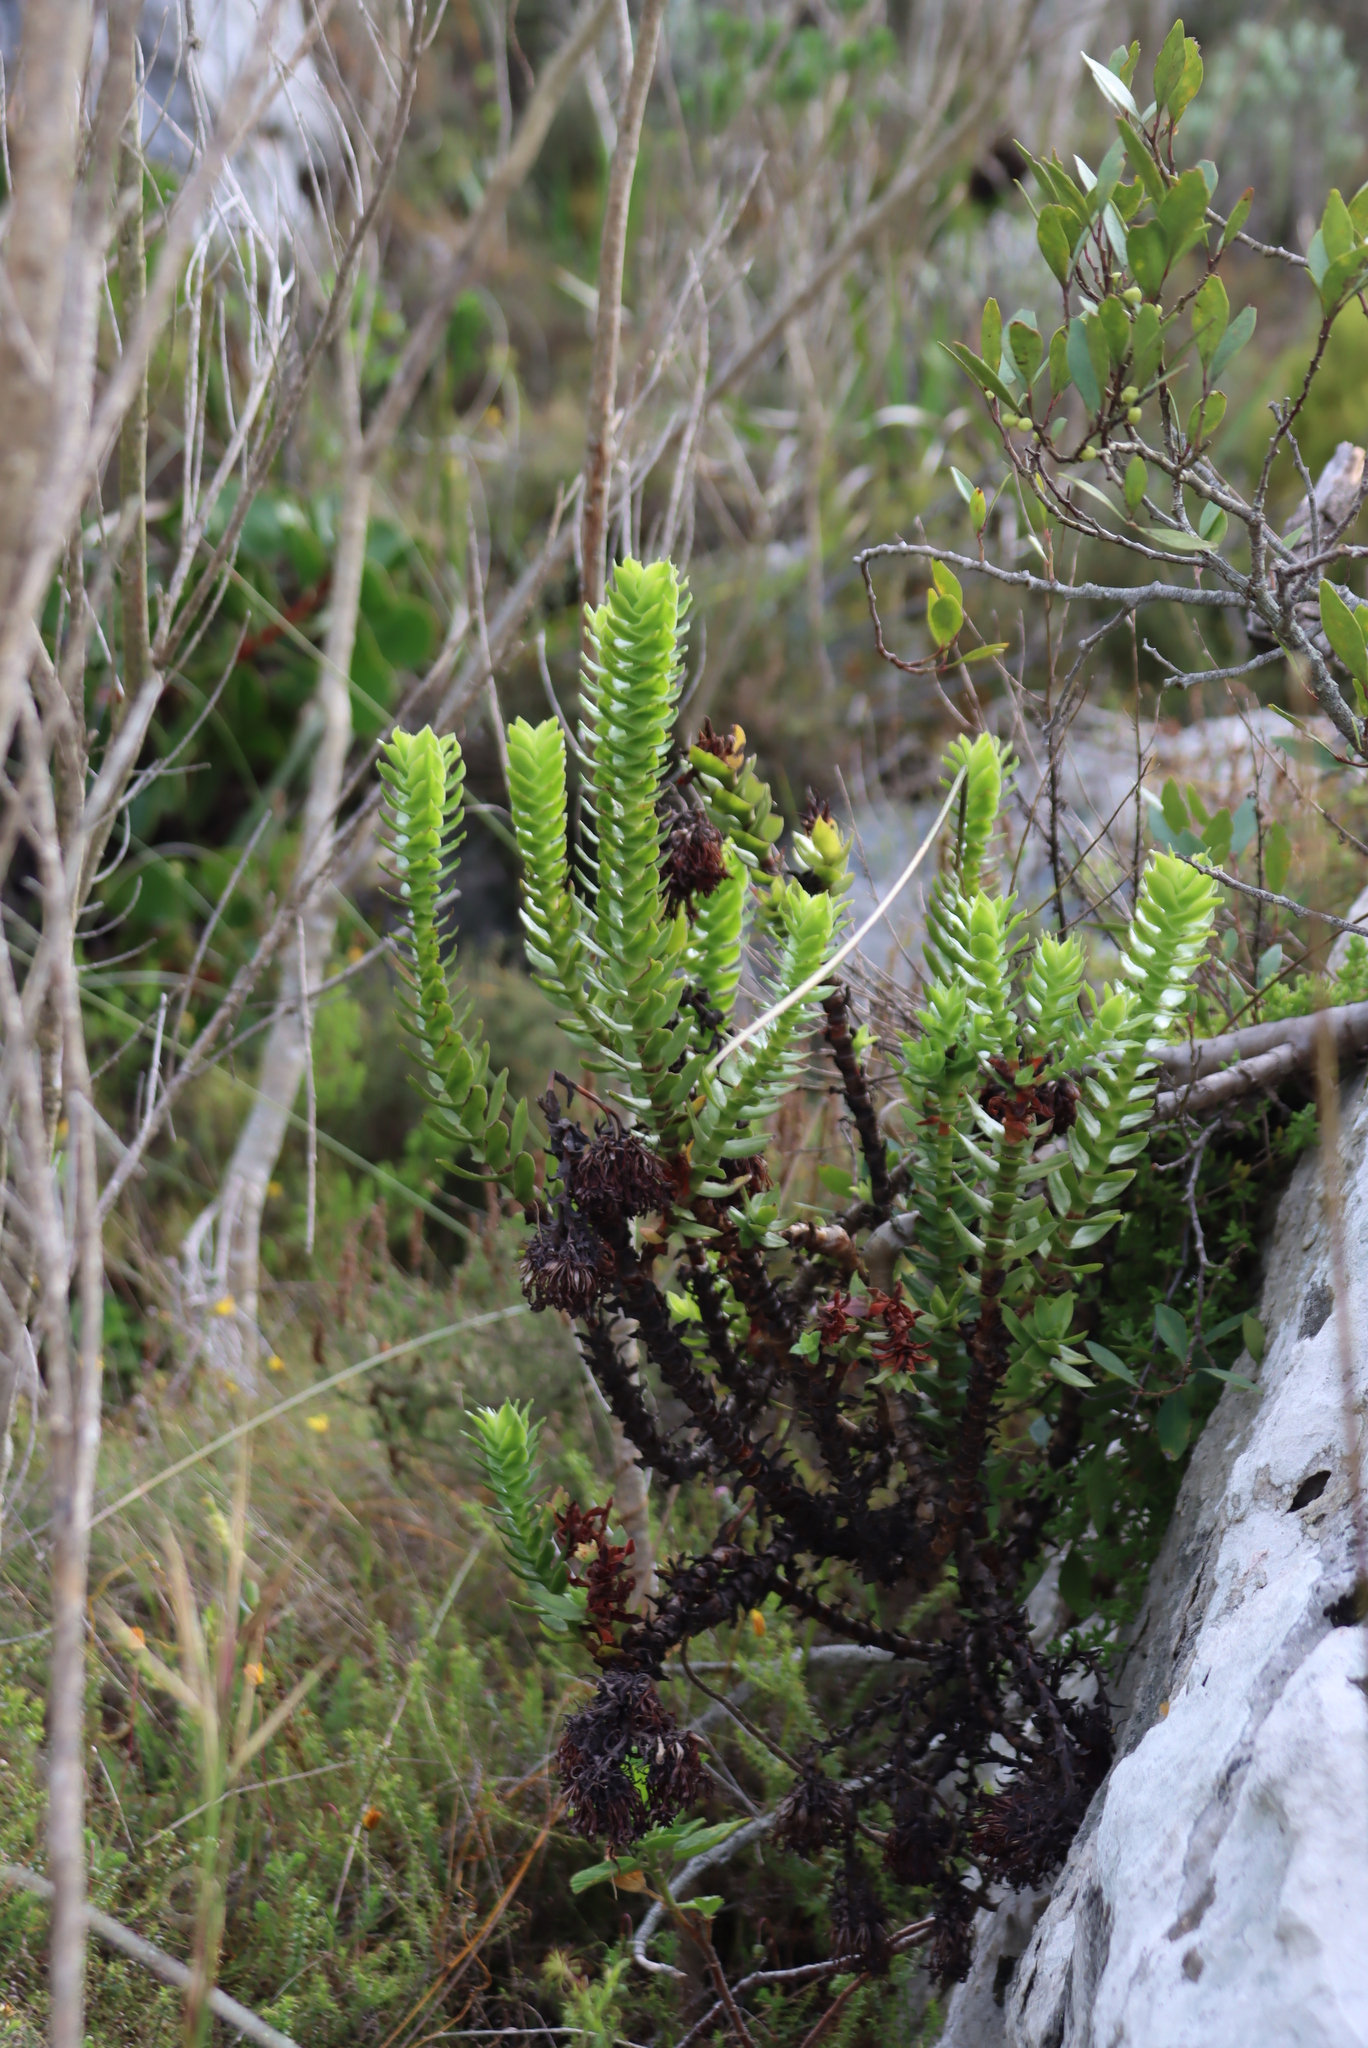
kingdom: Plantae
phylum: Tracheophyta
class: Magnoliopsida
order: Saxifragales
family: Crassulaceae
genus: Crassula
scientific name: Crassula coccinea
